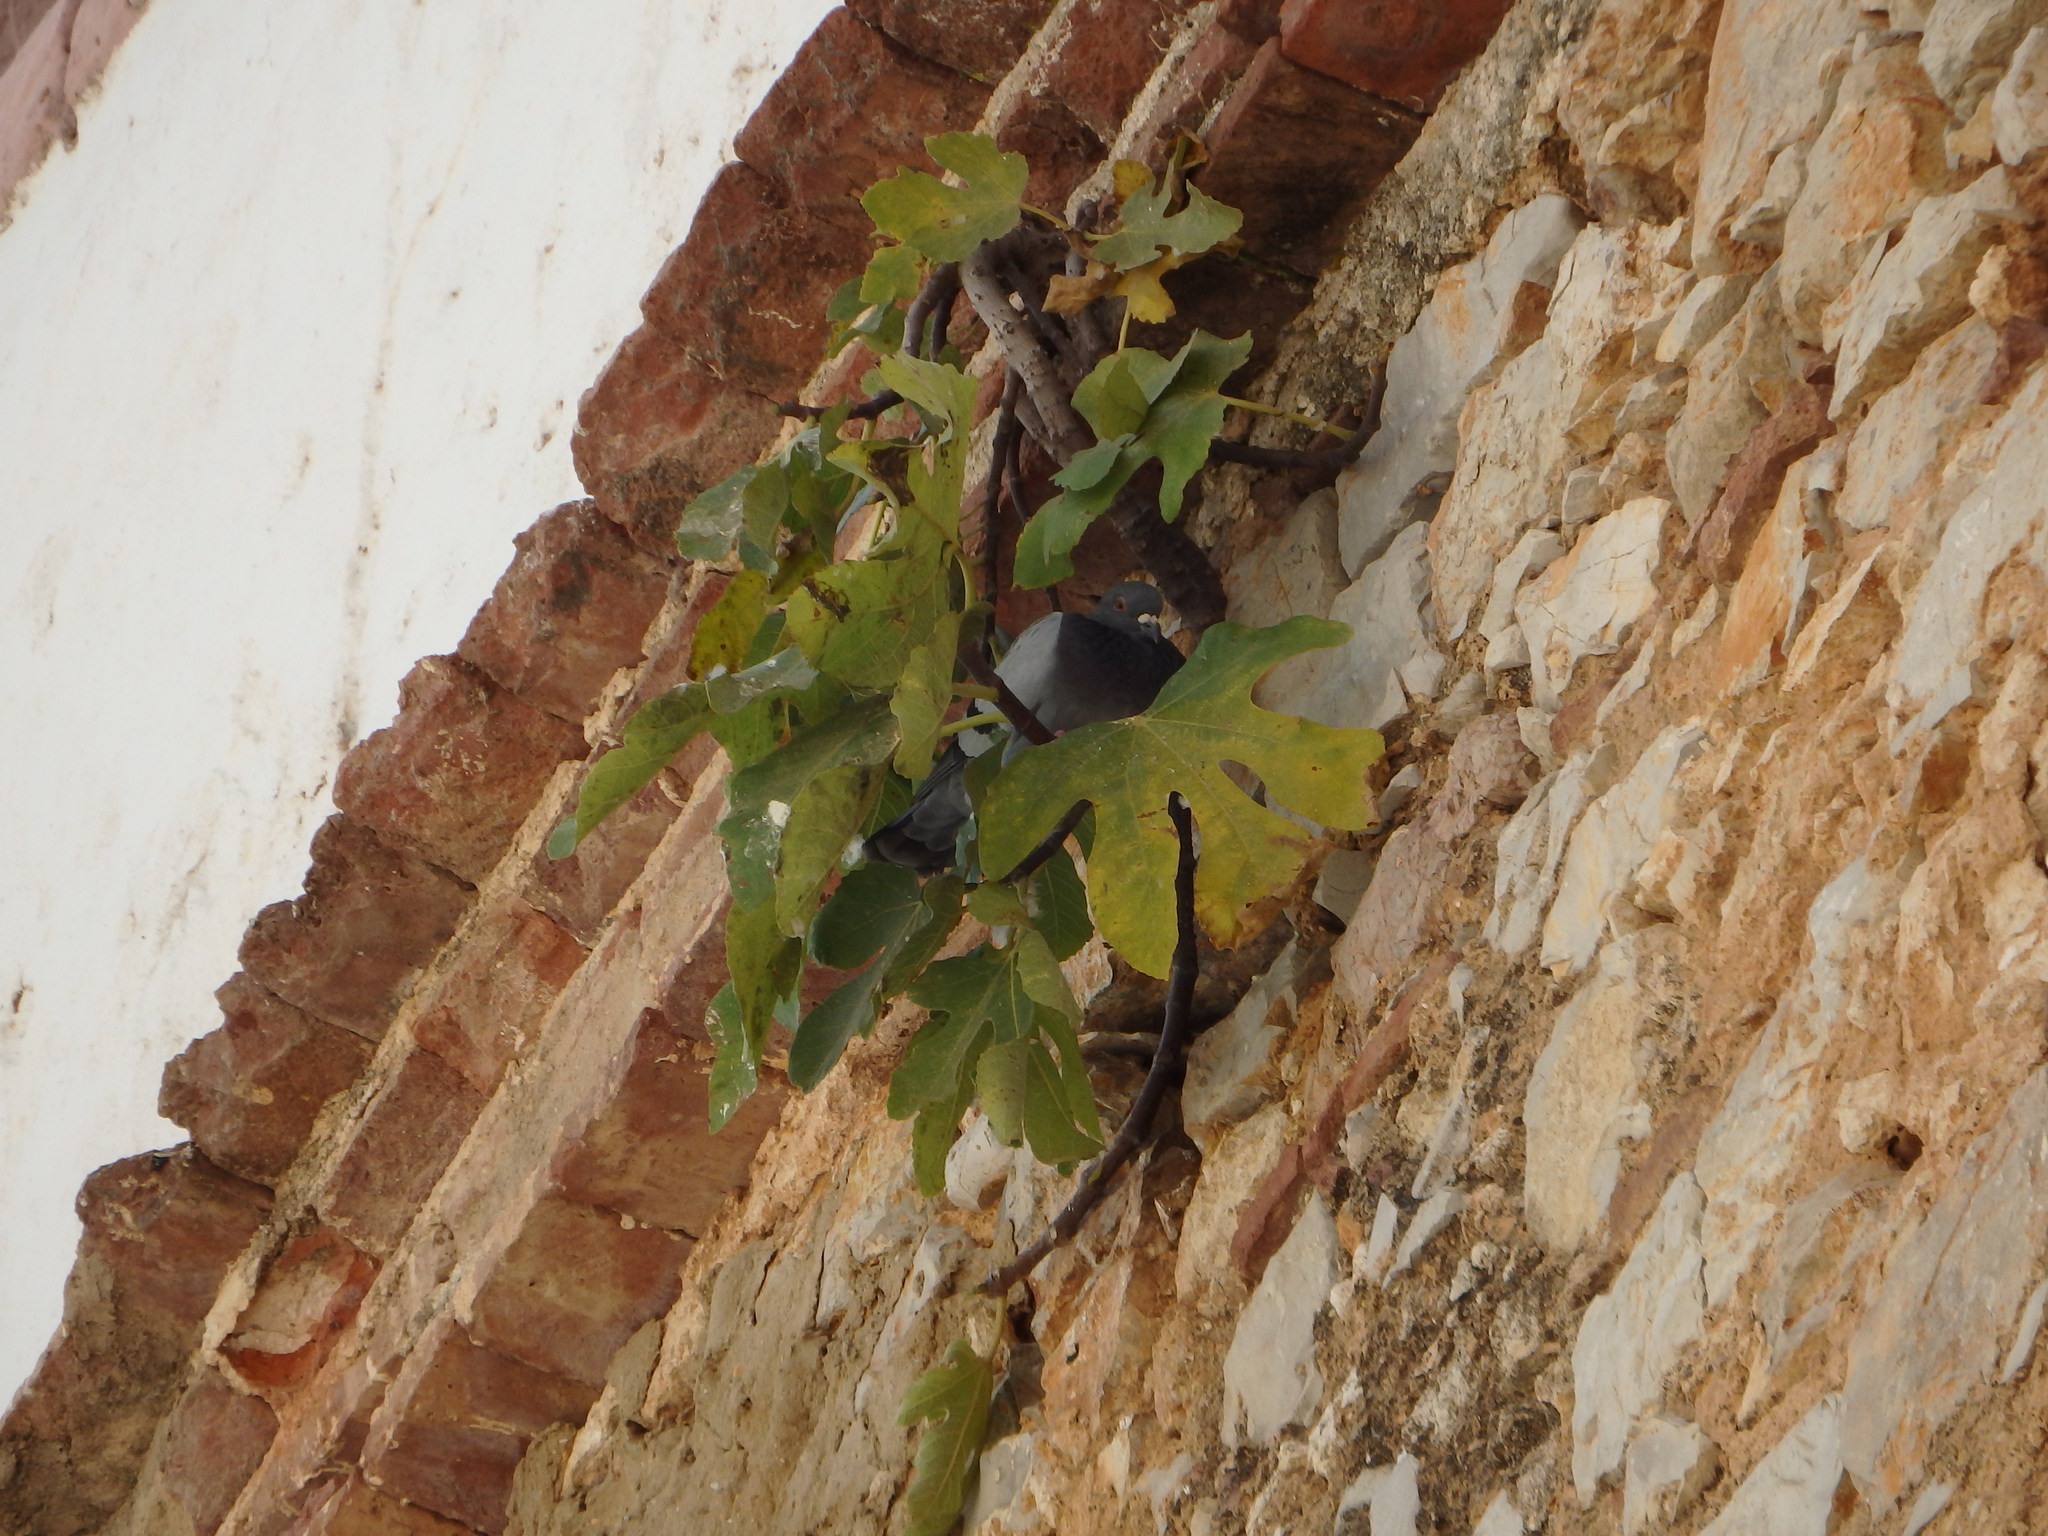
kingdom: Plantae
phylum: Tracheophyta
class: Magnoliopsida
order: Rosales
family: Moraceae
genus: Ficus
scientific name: Ficus carica
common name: Fig
